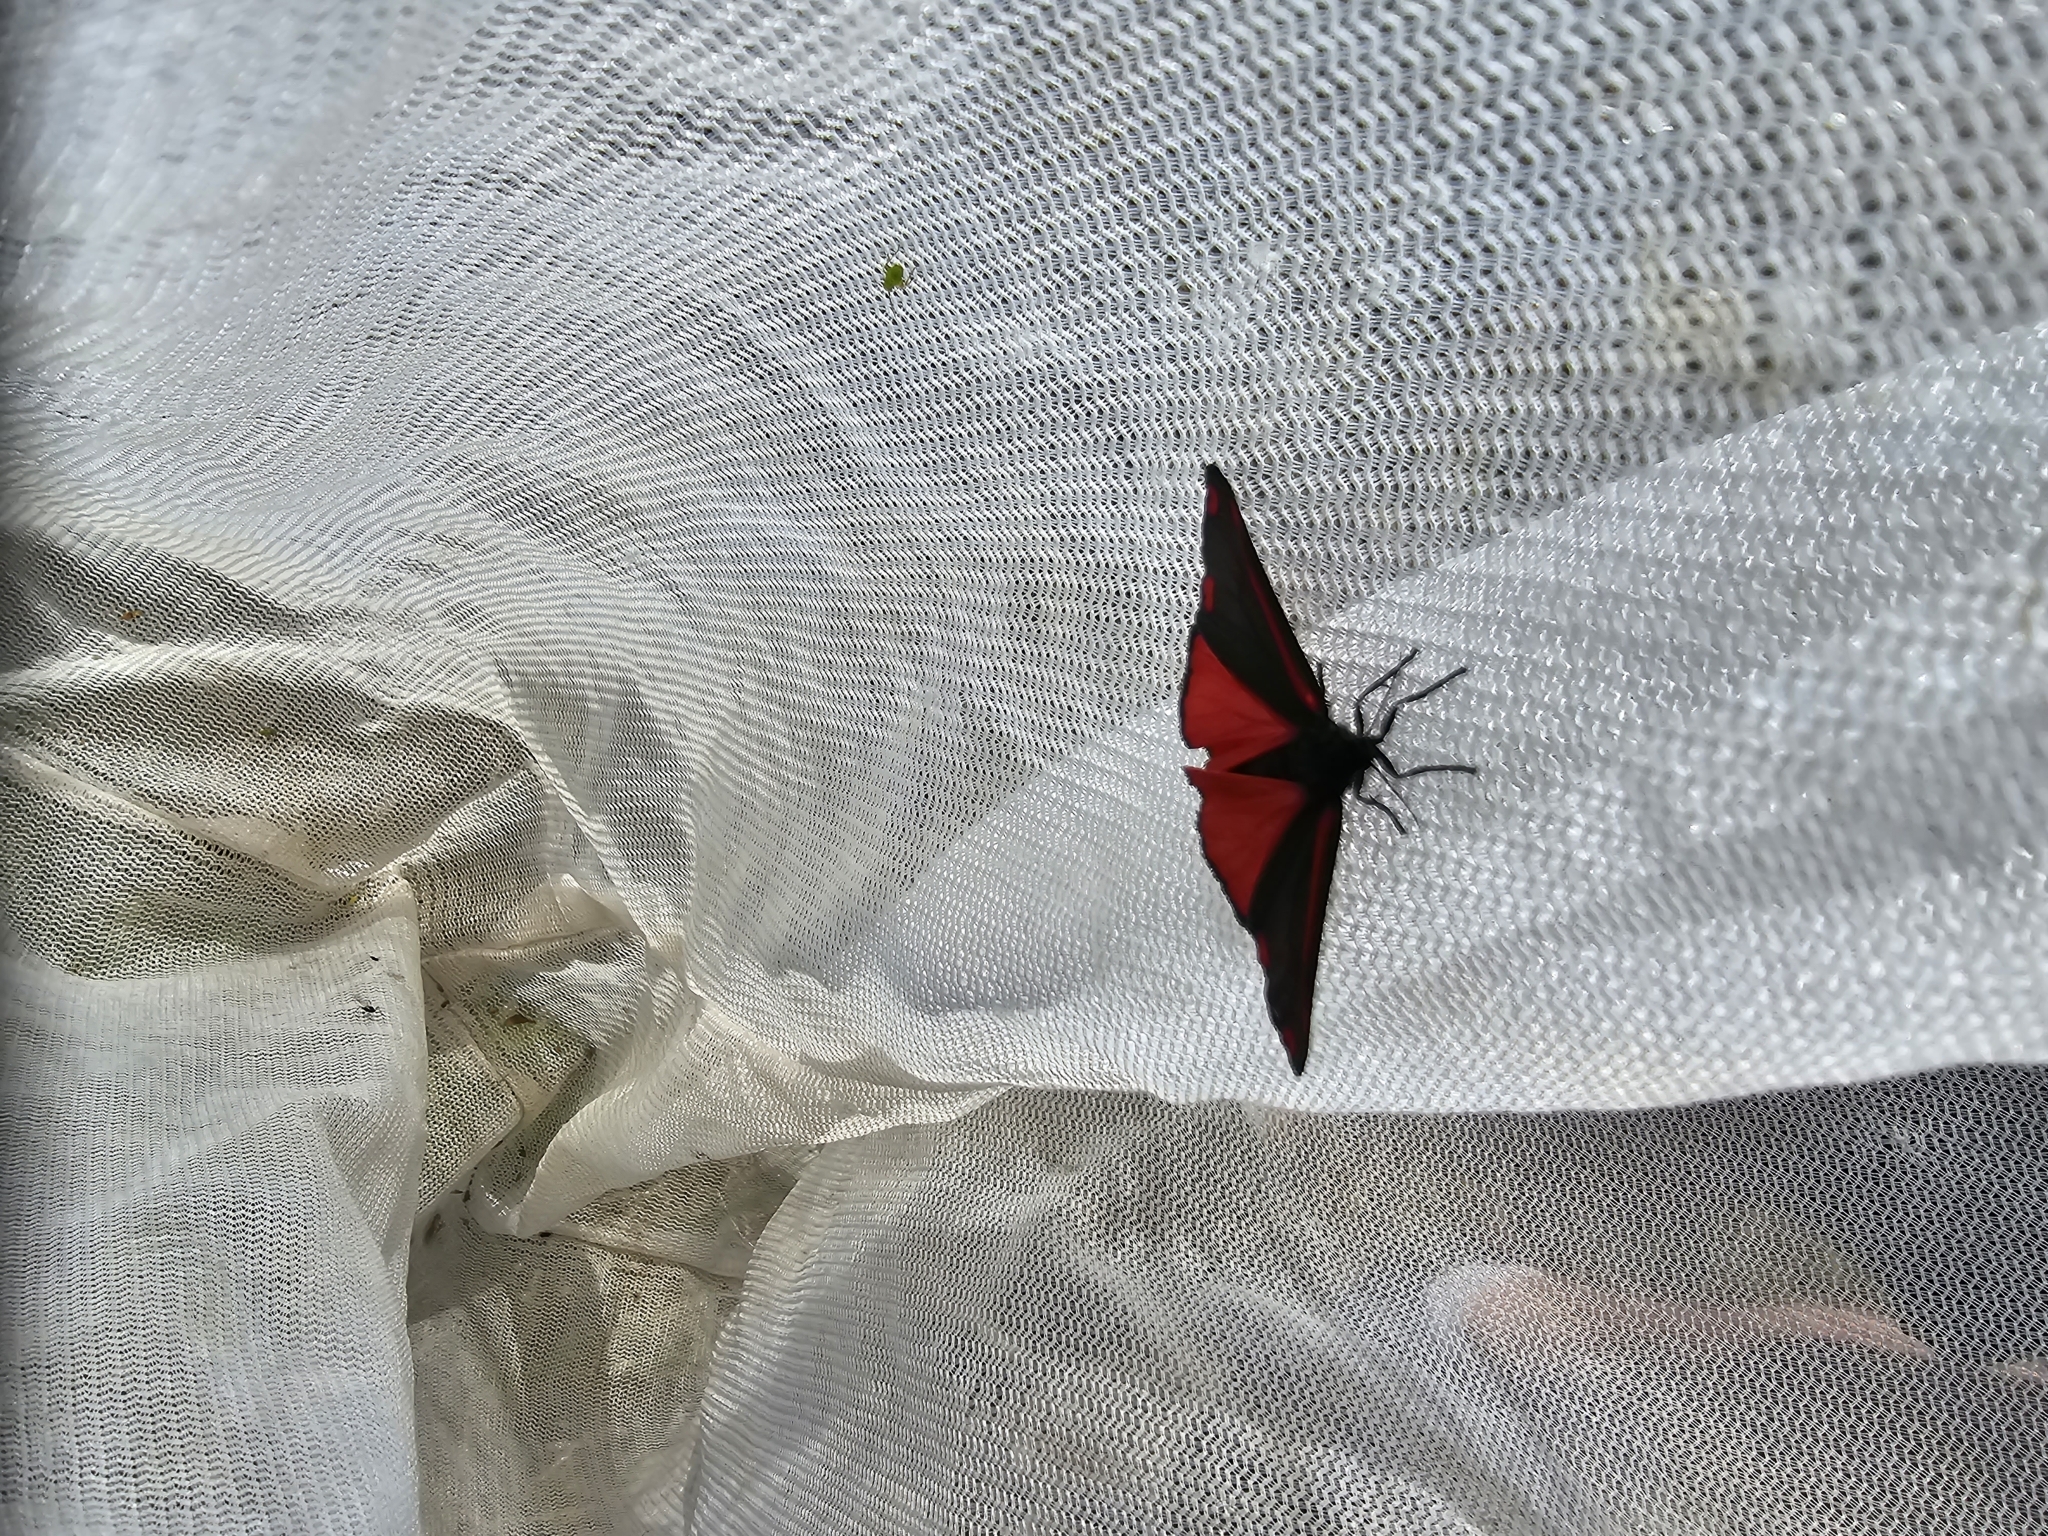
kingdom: Animalia
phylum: Arthropoda
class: Insecta
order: Lepidoptera
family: Erebidae
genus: Tyria
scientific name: Tyria jacobaeae
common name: Cinnabar
